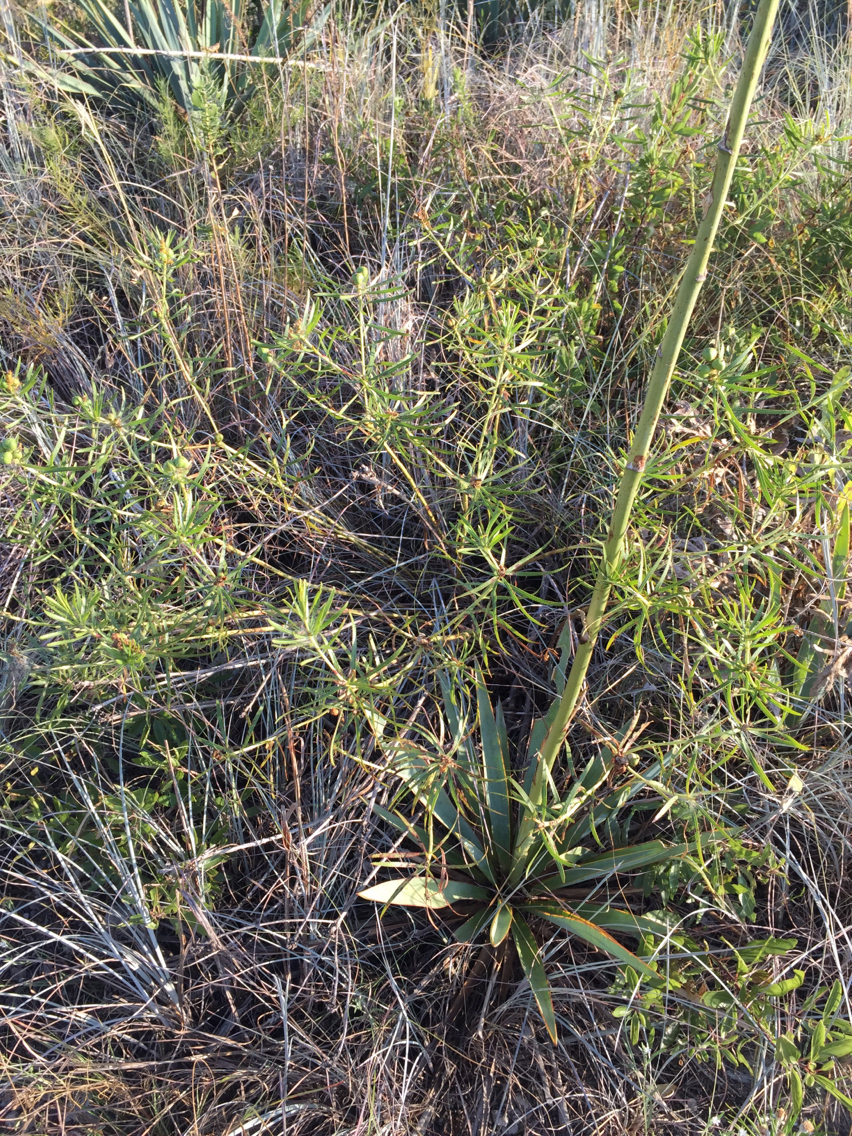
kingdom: Plantae
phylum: Tracheophyta
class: Magnoliopsida
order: Malpighiales
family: Euphorbiaceae
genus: Stillingia
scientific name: Stillingia texana
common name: Texas stillingia
